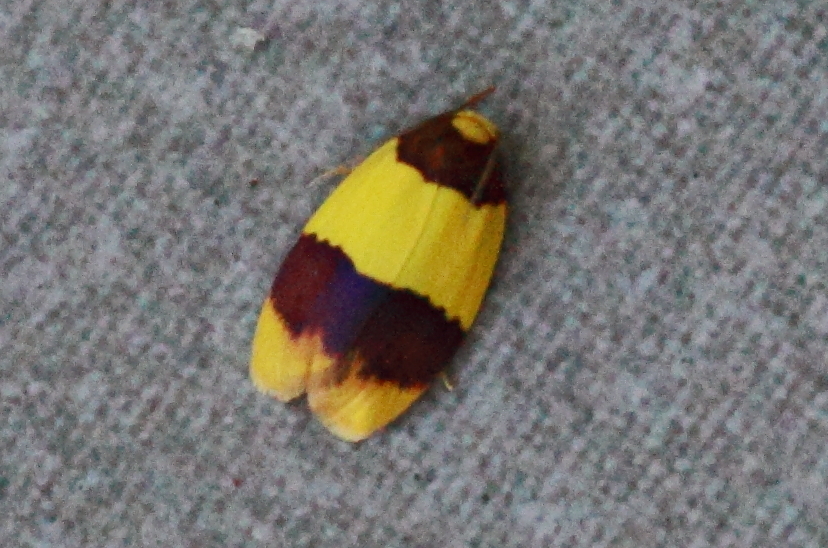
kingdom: Animalia
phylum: Arthropoda
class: Insecta
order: Lepidoptera
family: Erebidae
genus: Heterallactis
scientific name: Heterallactis euchrysa
